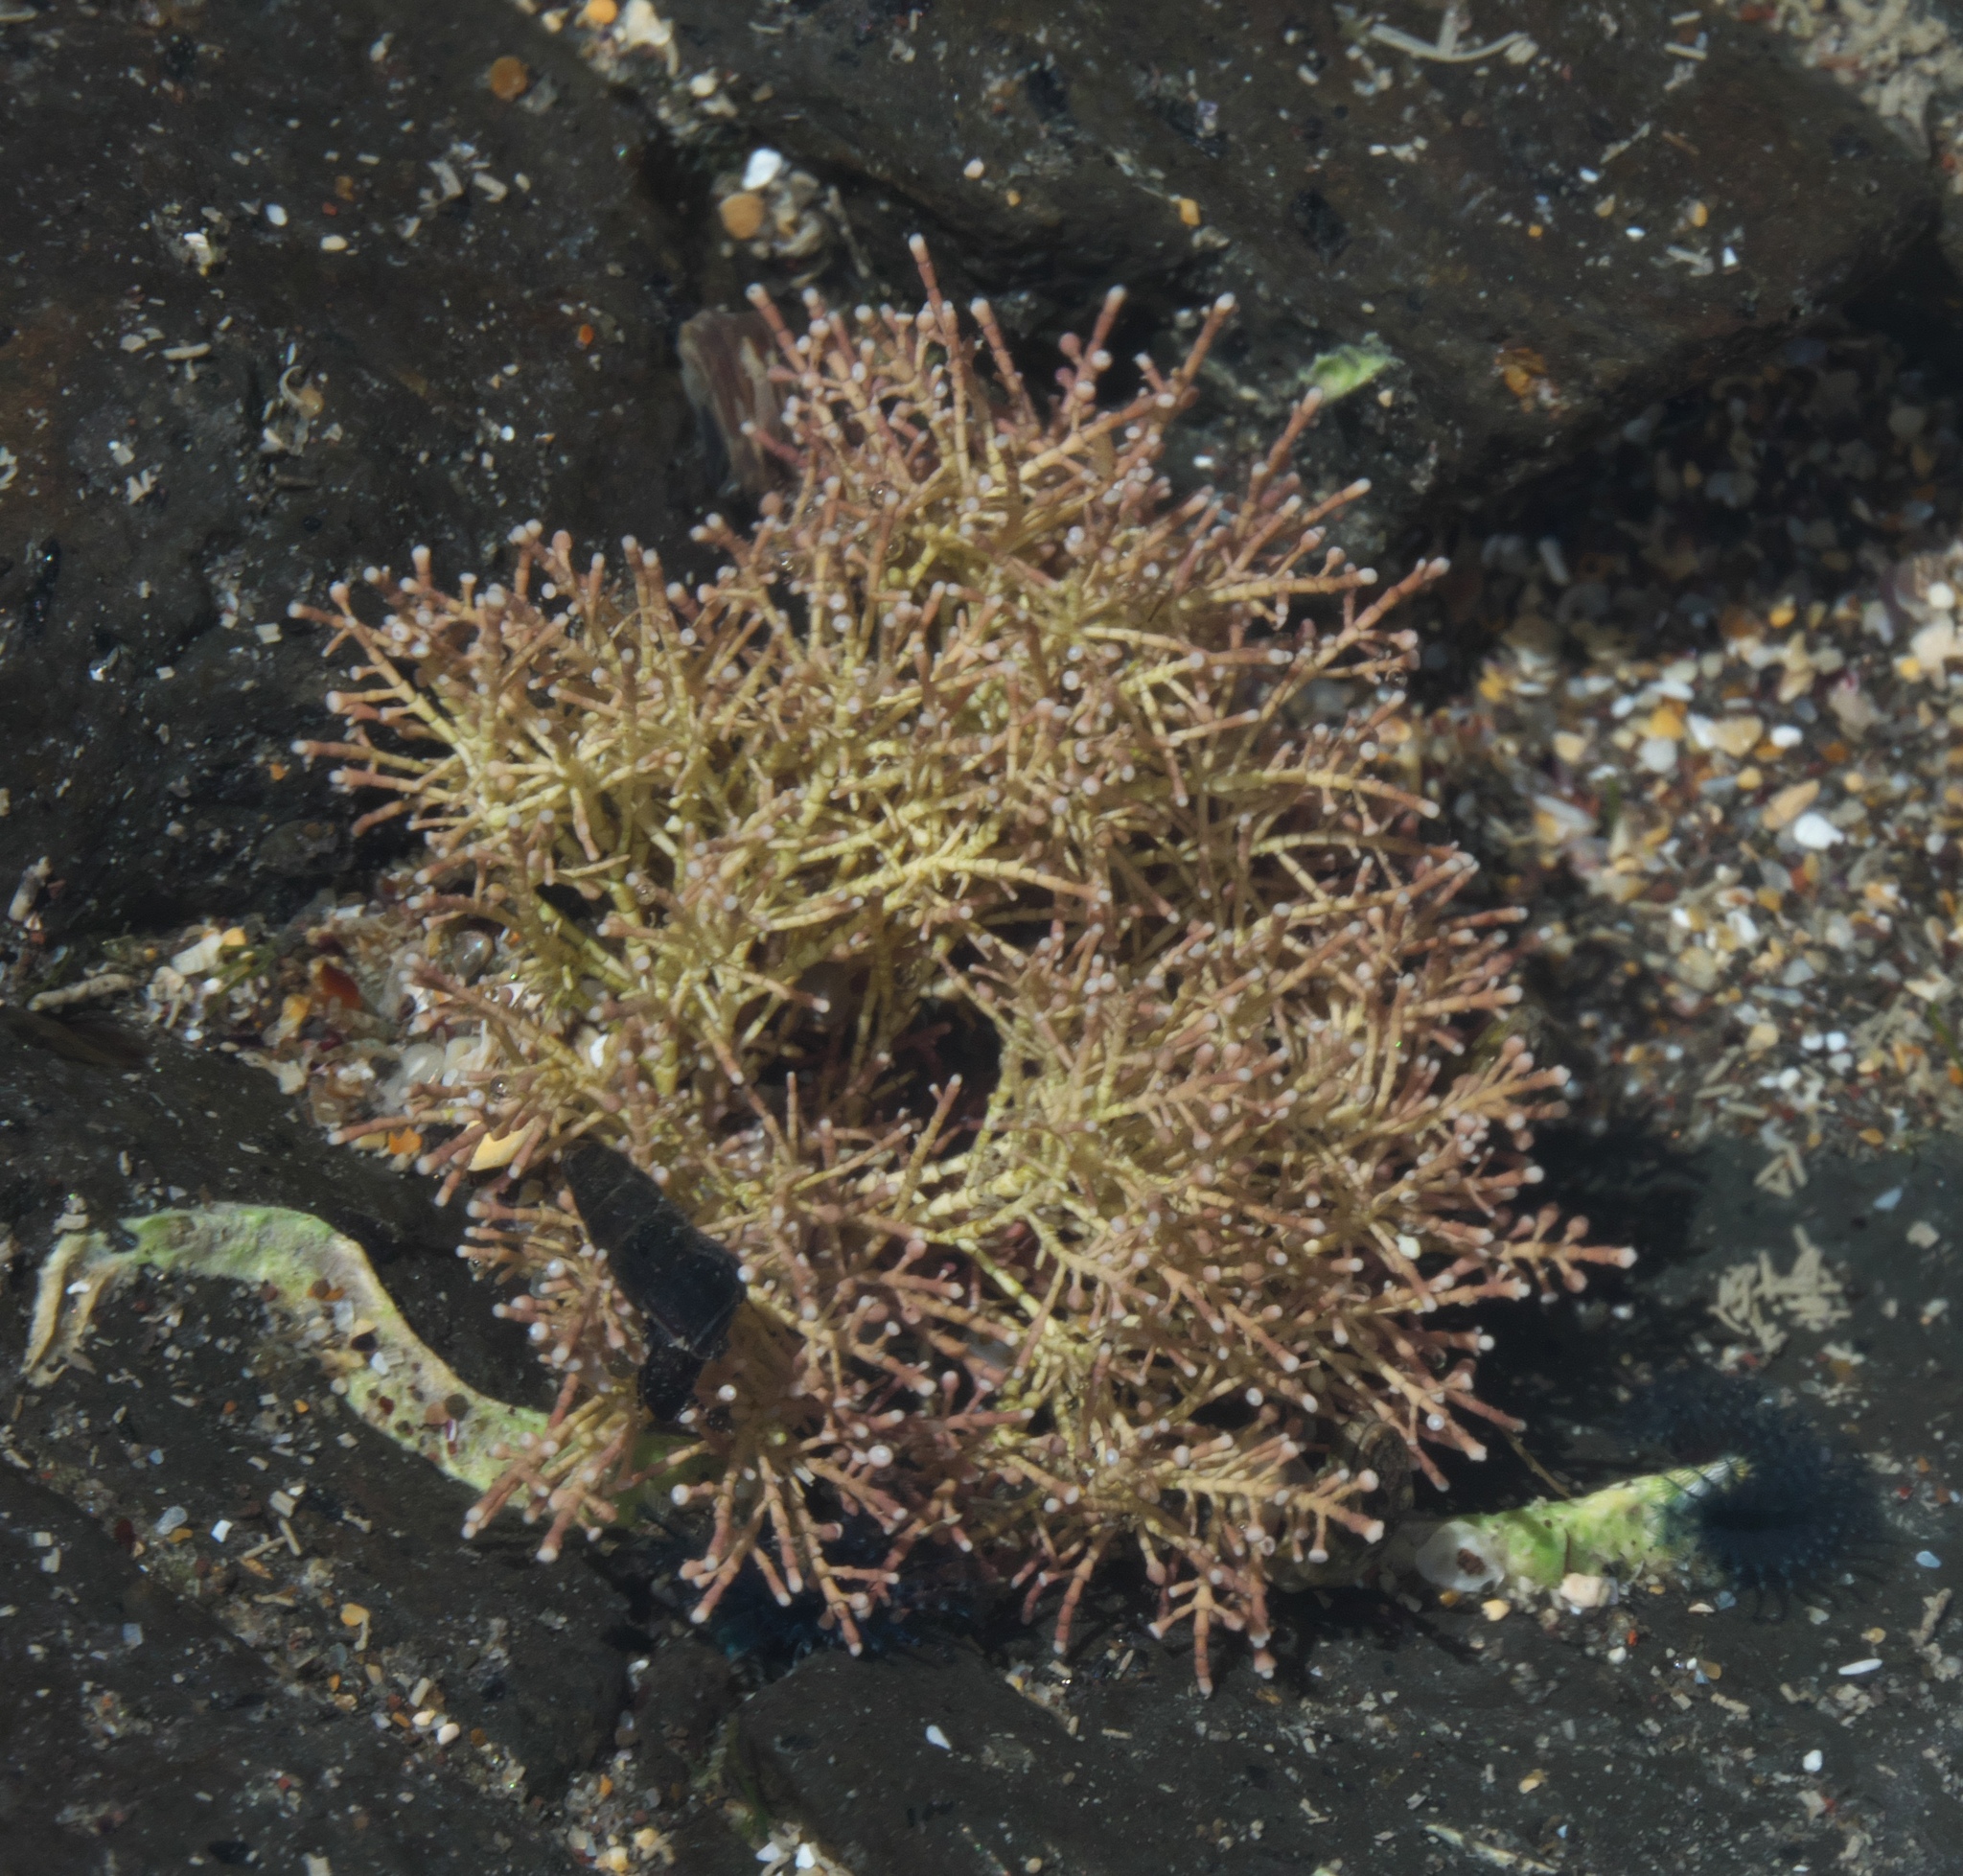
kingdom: Plantae
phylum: Rhodophyta
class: Florideophyceae
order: Corallinales
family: Corallinaceae
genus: Corallina
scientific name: Corallina officinalis
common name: Coral weed
